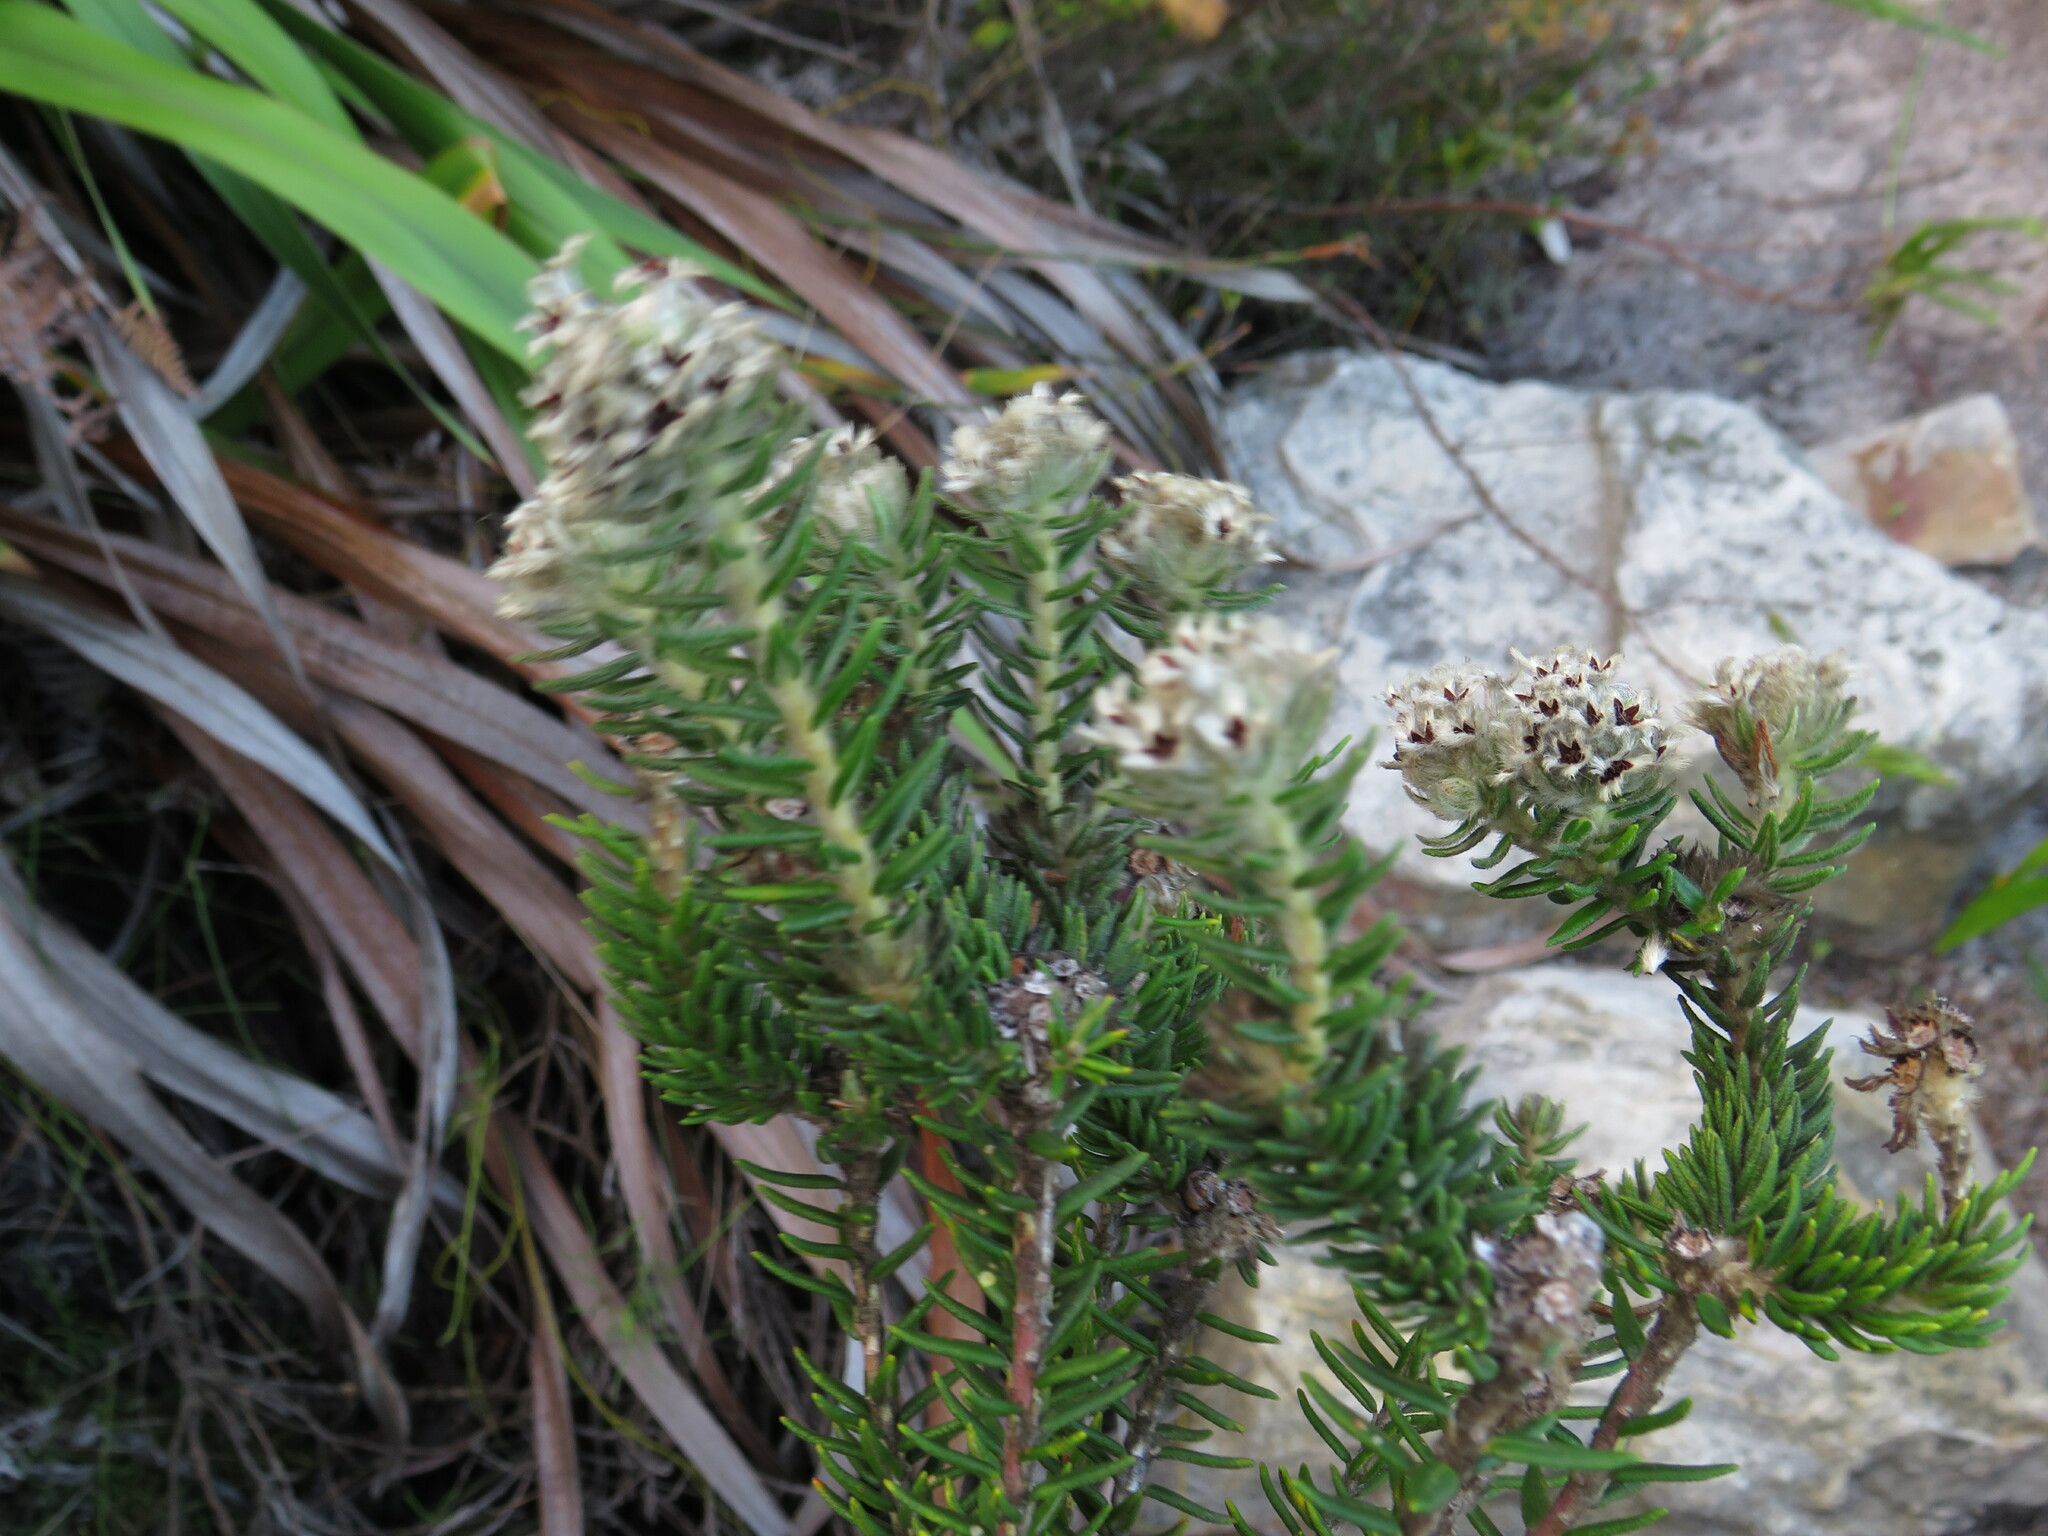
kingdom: Plantae
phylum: Tracheophyta
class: Magnoliopsida
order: Rosales
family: Rhamnaceae
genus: Phylica
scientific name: Phylica strigosa
